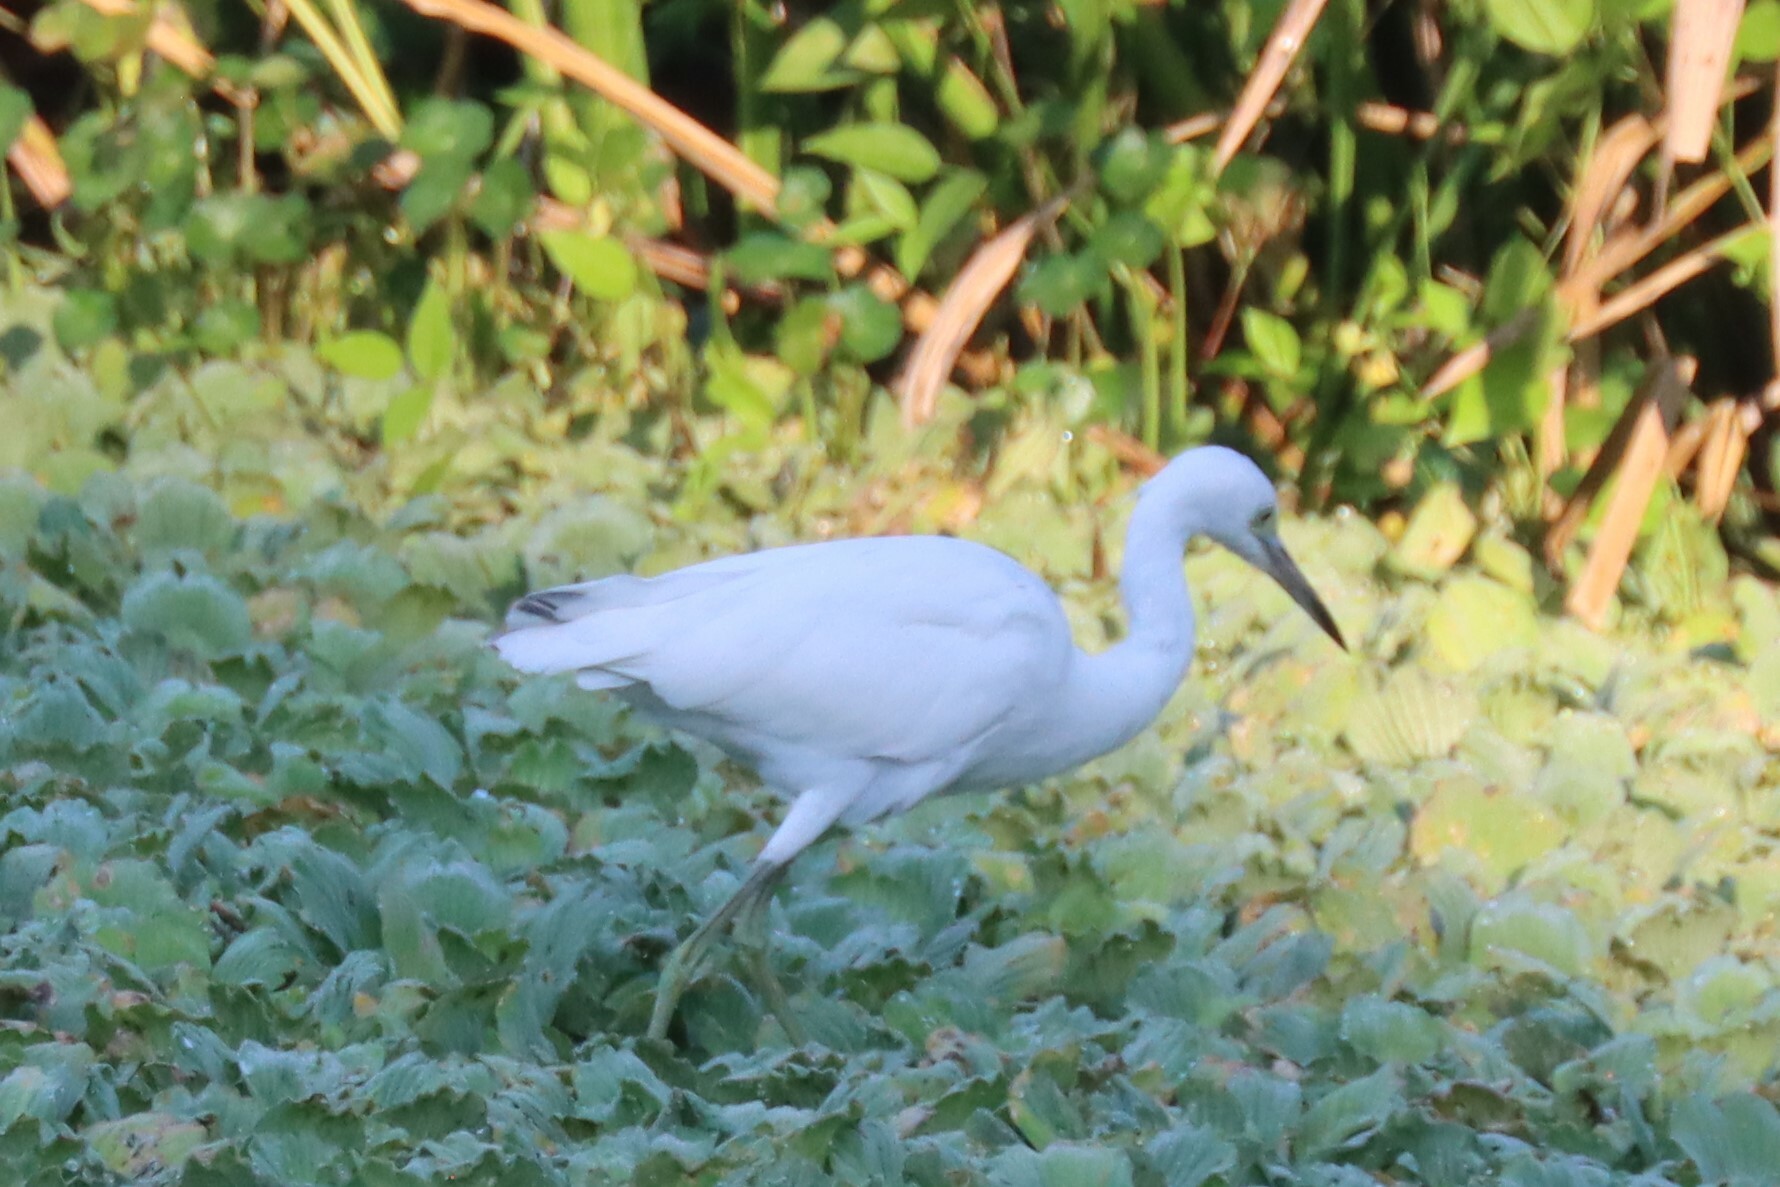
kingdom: Animalia
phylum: Chordata
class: Aves
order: Pelecaniformes
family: Ardeidae
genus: Egretta
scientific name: Egretta caerulea
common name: Little blue heron
